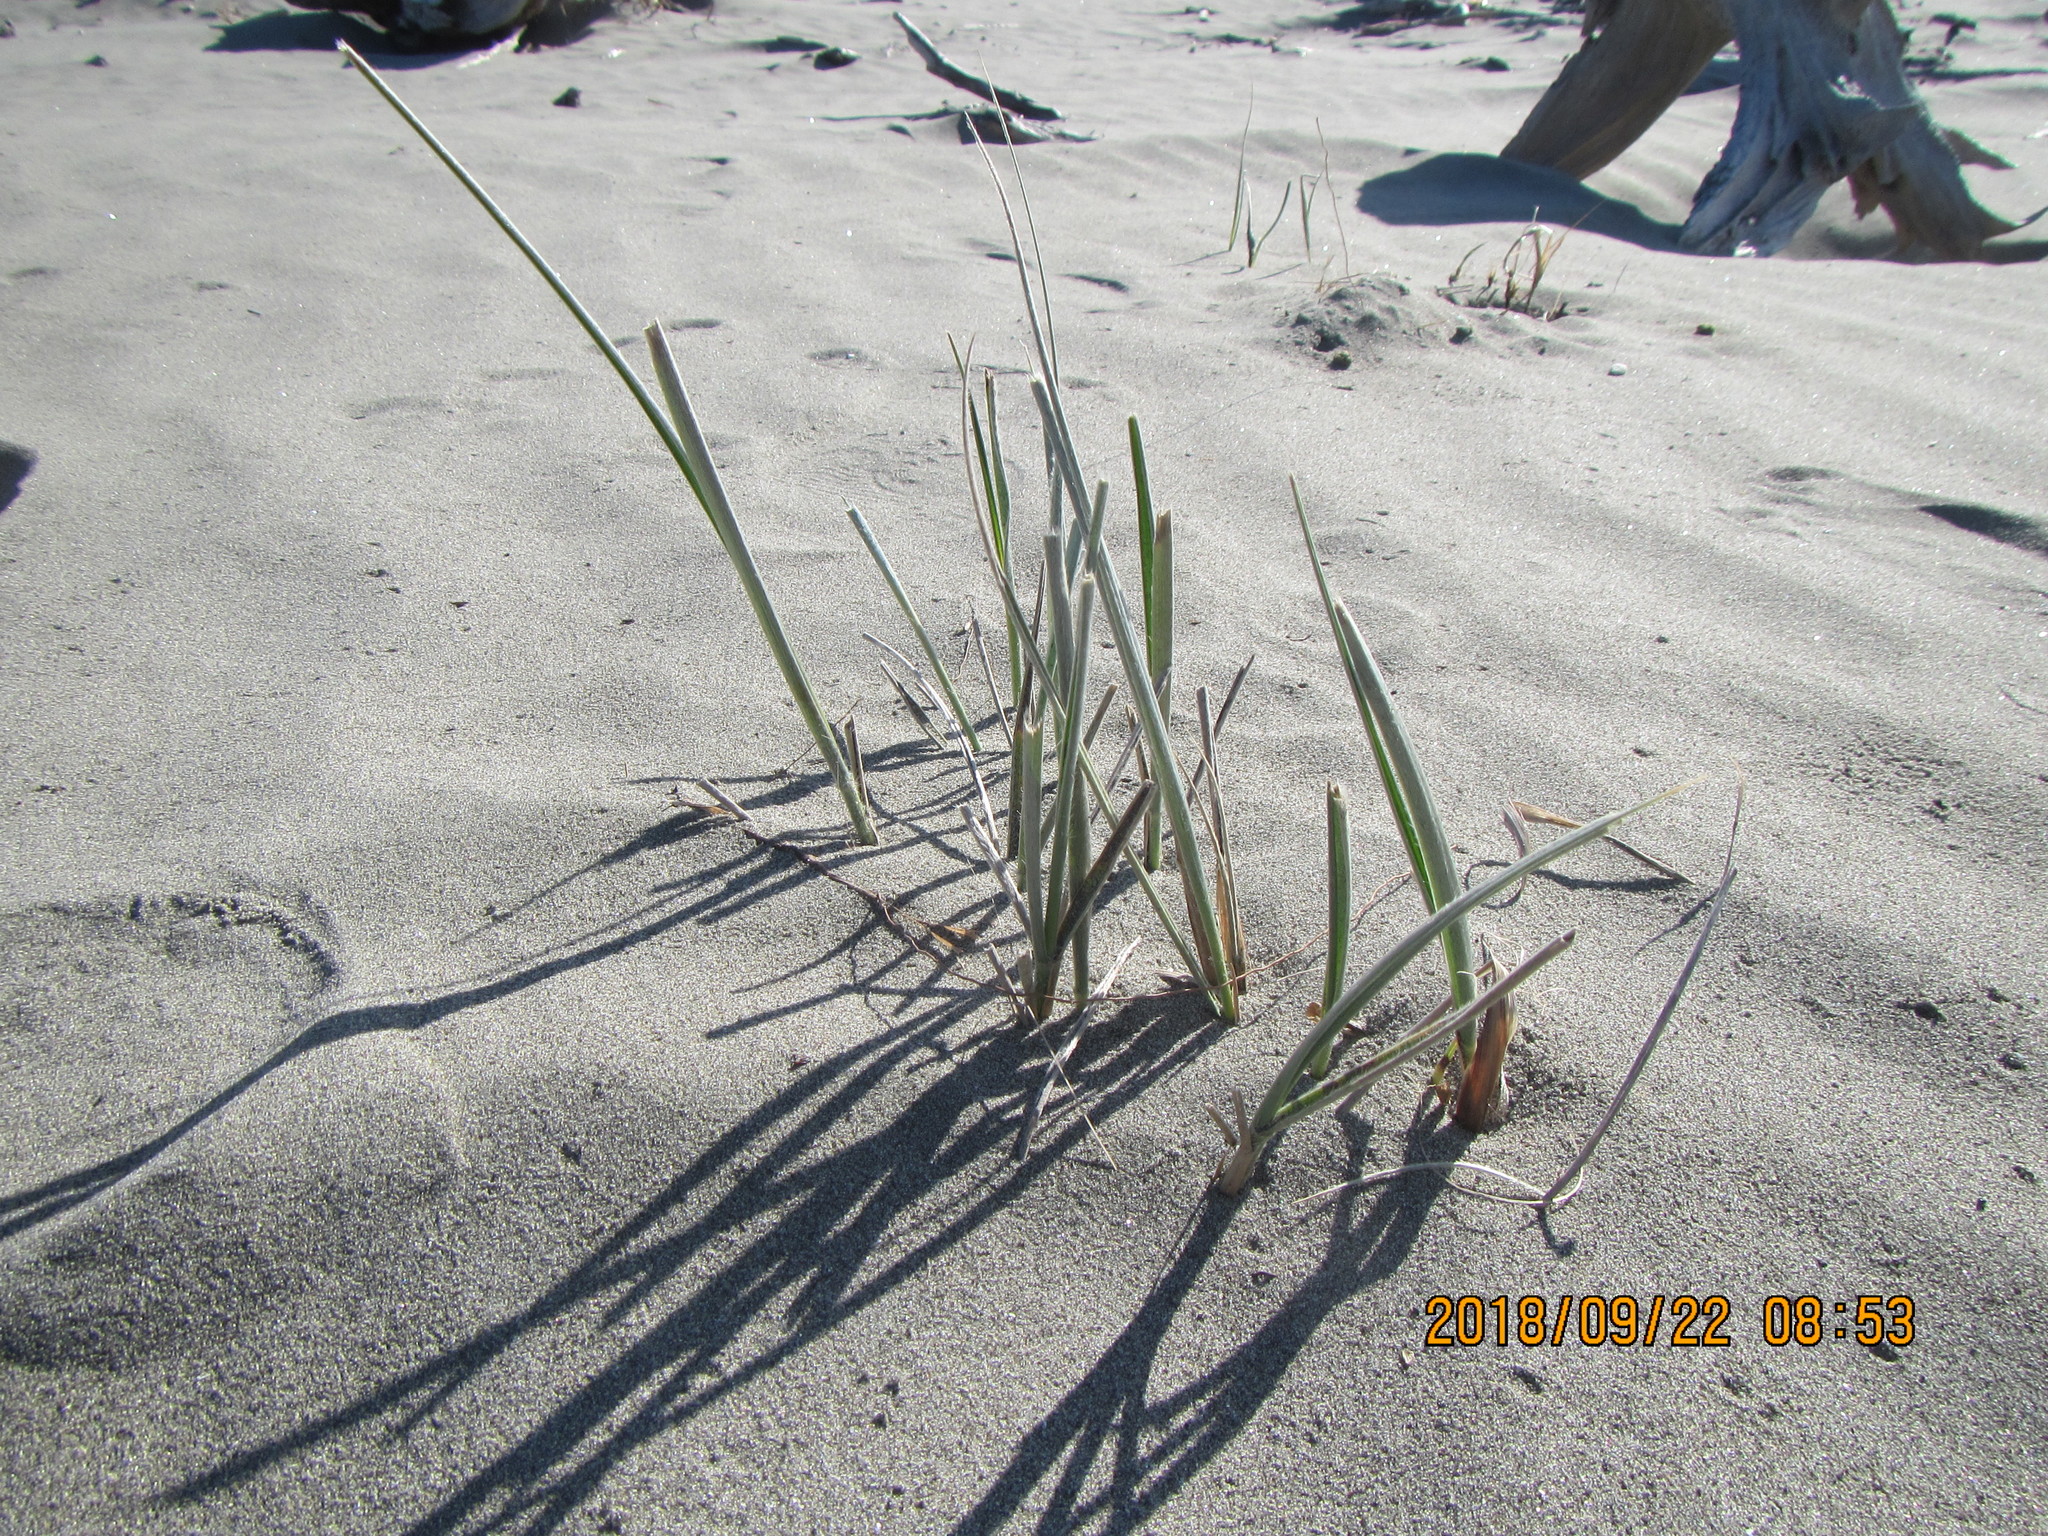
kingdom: Plantae
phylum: Tracheophyta
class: Liliopsida
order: Poales
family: Poaceae
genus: Spinifex
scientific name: Spinifex sericeus
